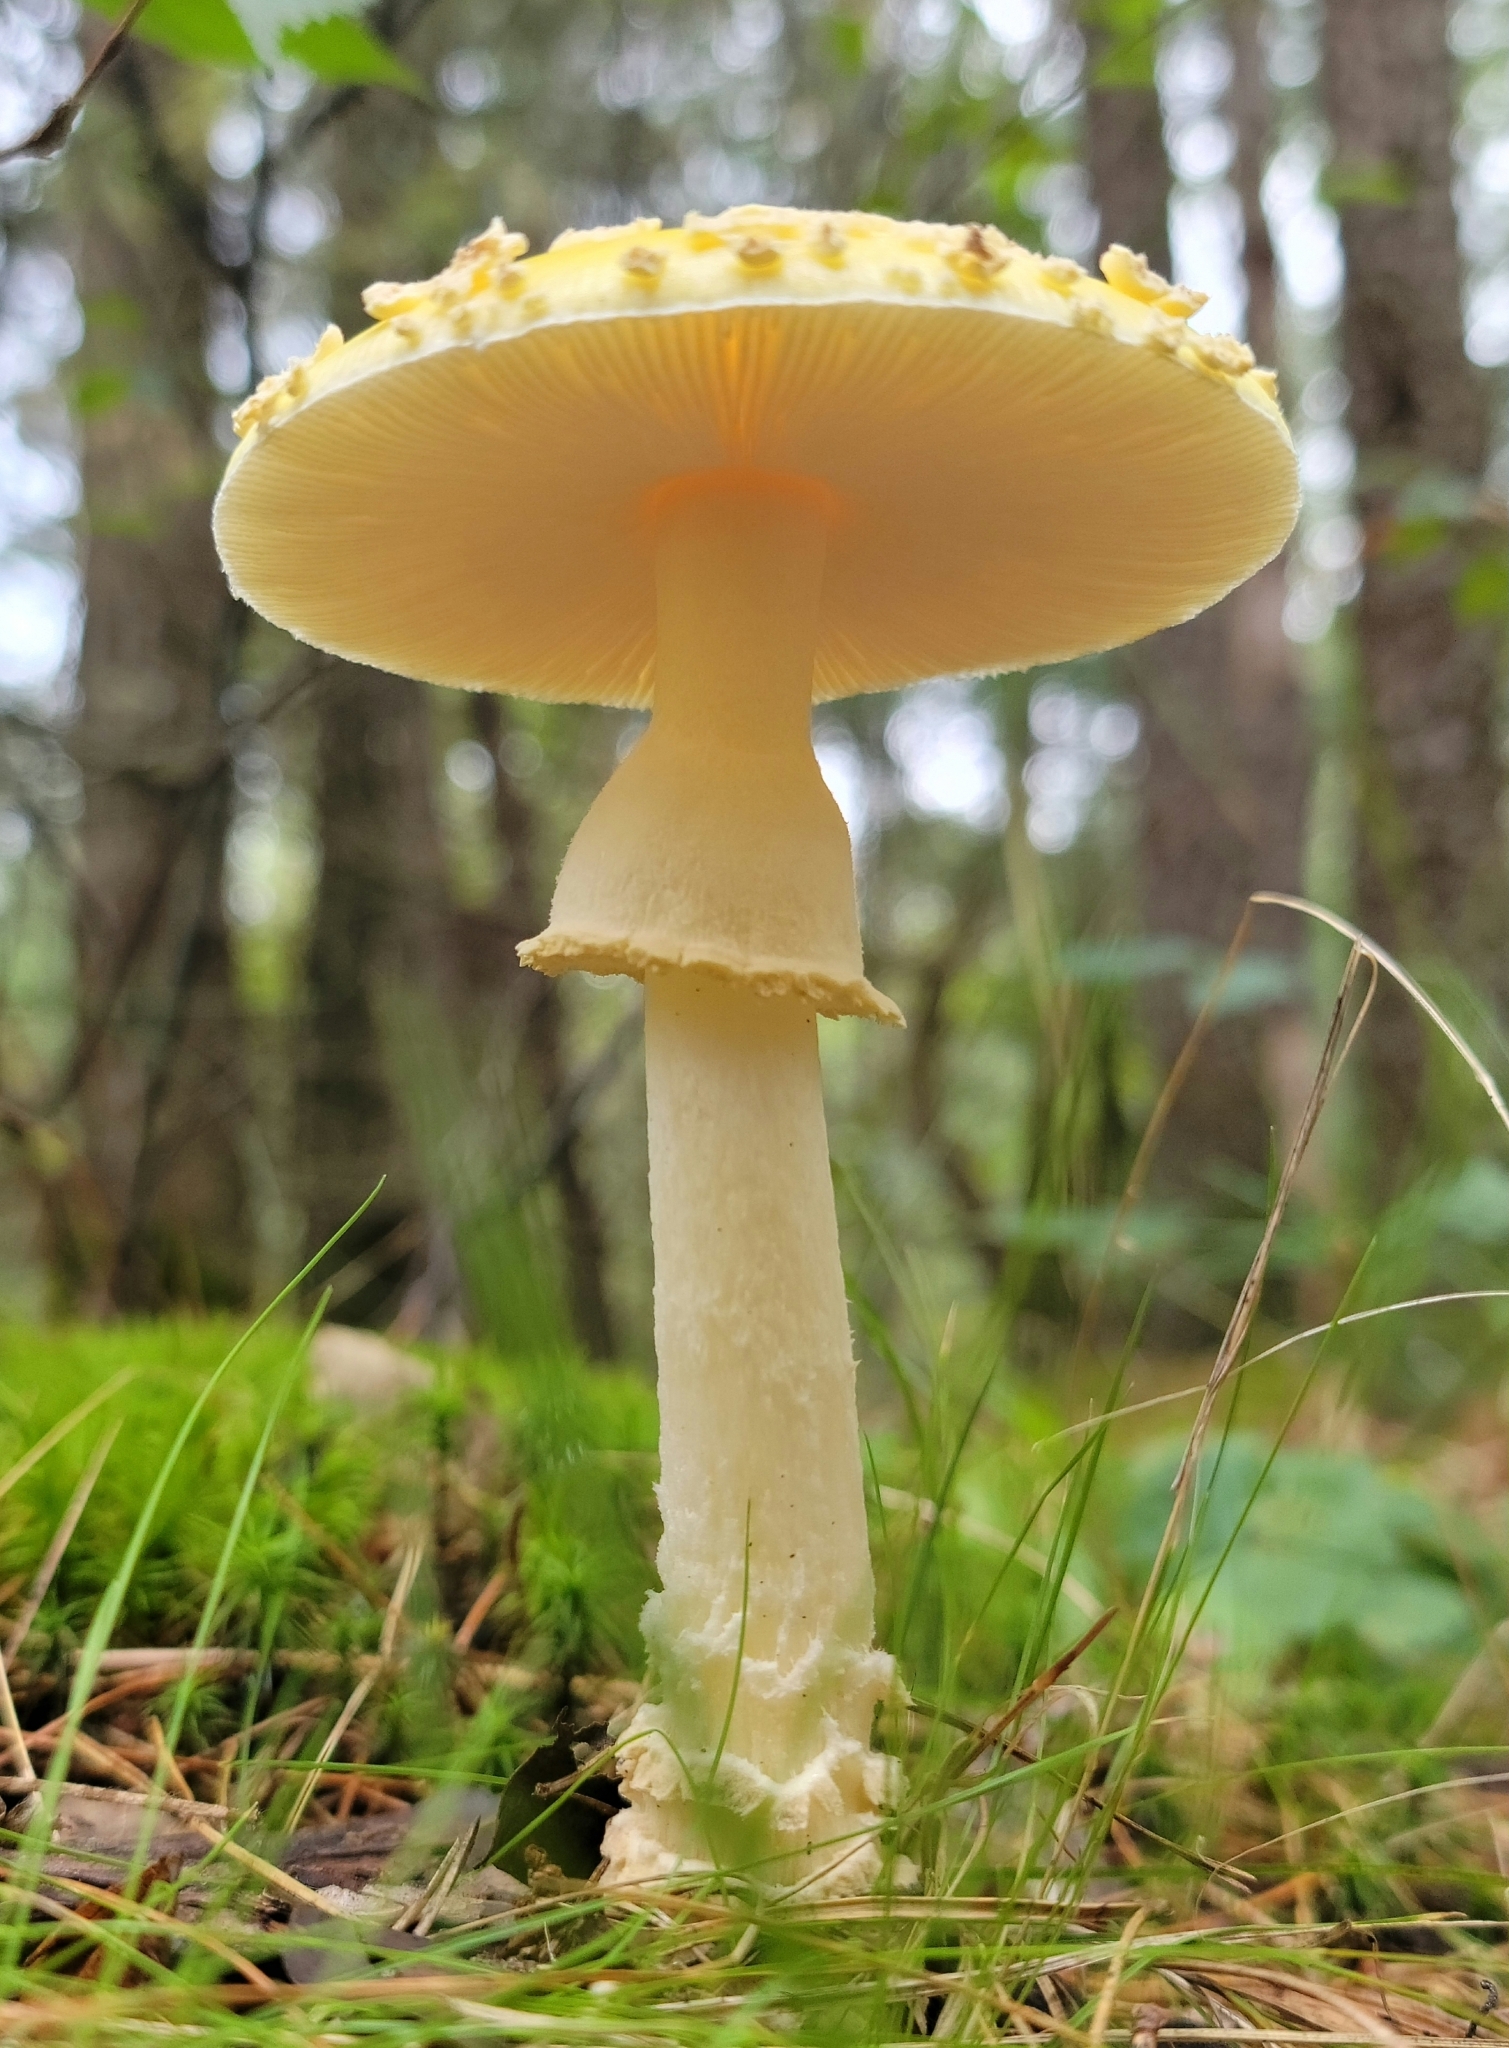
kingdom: Fungi
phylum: Basidiomycota
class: Agaricomycetes
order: Agaricales
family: Amanitaceae
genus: Amanita
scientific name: Amanita muscaria
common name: Fly agaric
